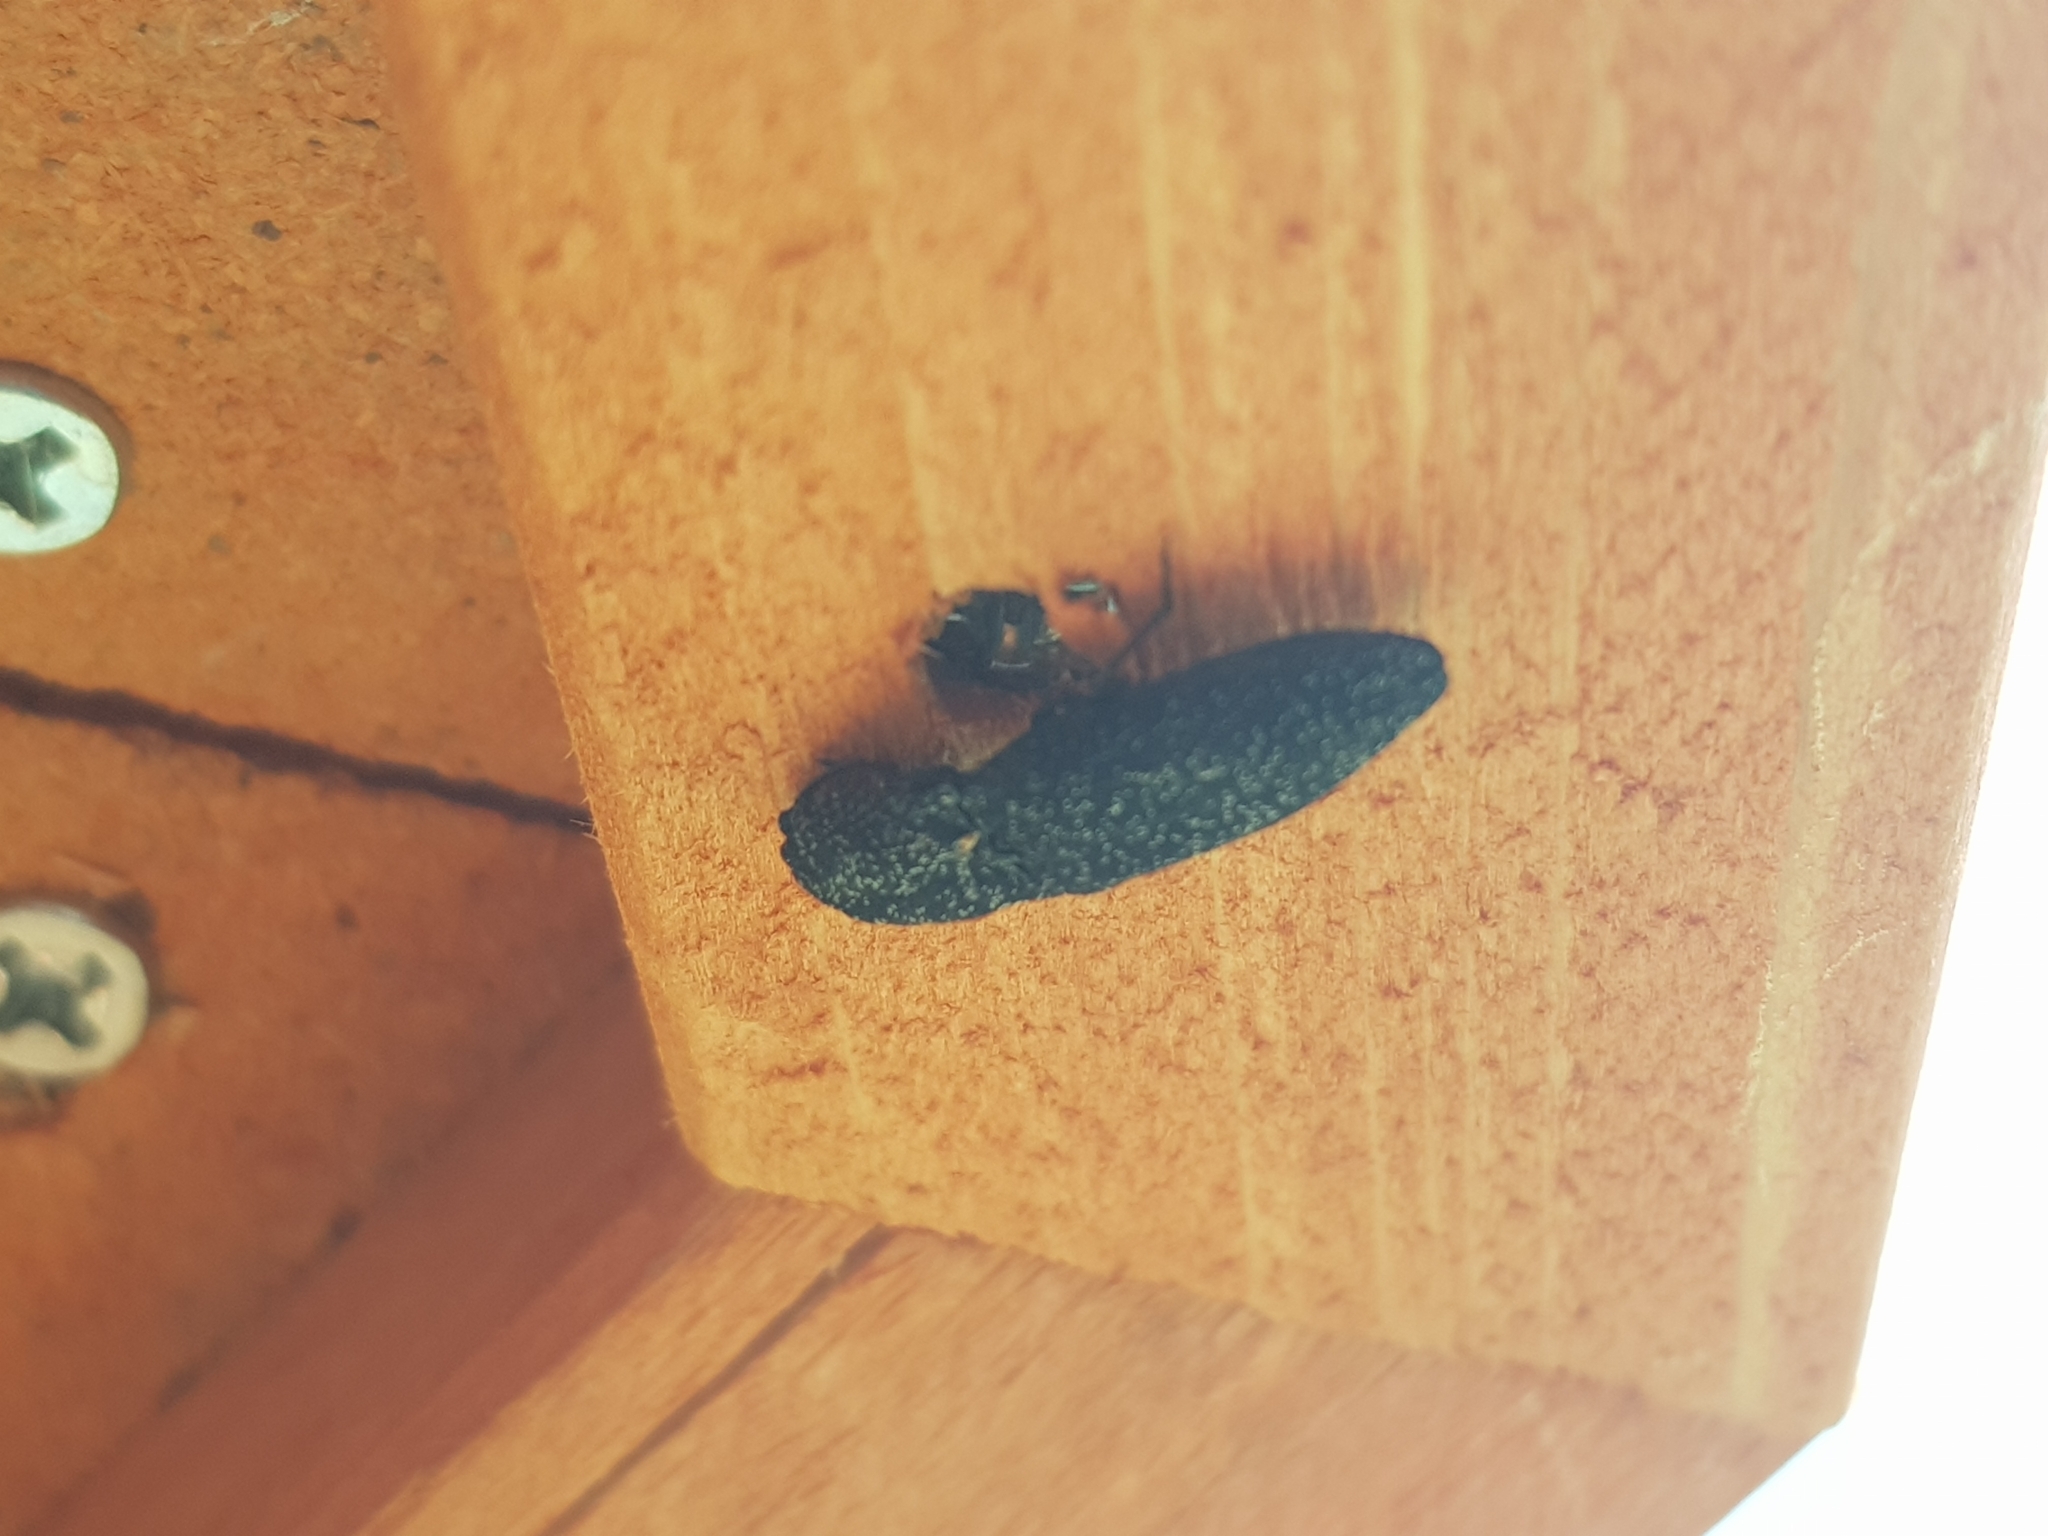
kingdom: Animalia
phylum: Arthropoda
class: Insecta
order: Coleoptera
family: Elateridae
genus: Lacon
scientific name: Lacon punctatus
